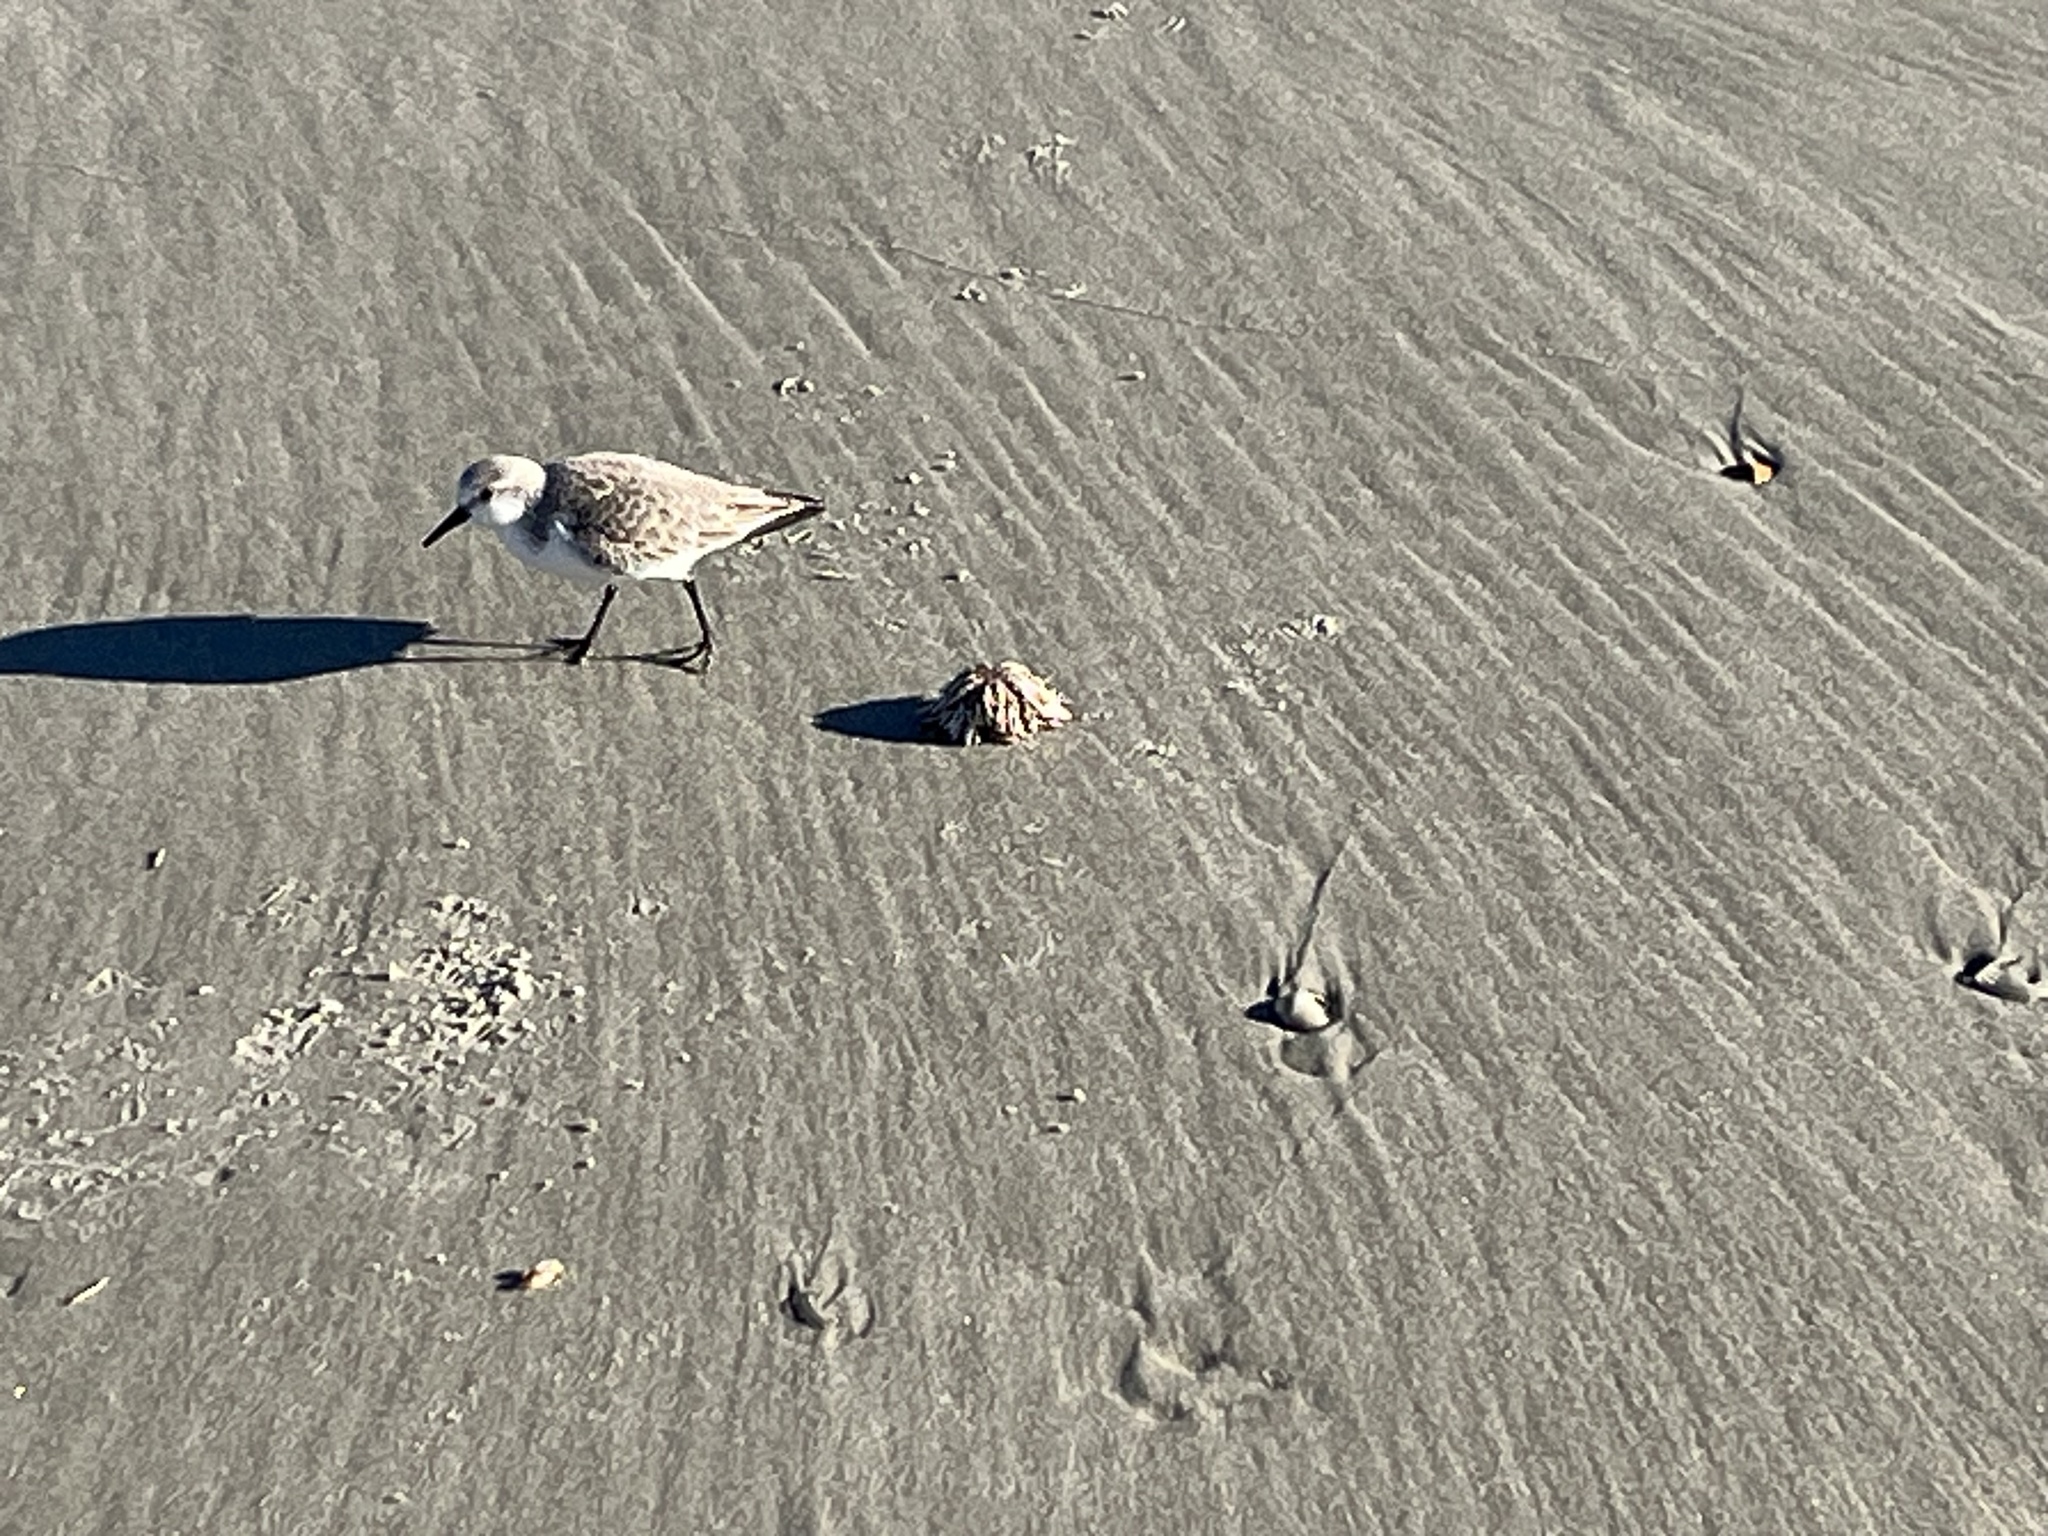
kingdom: Animalia
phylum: Chordata
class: Aves
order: Charadriiformes
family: Scolopacidae
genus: Calidris
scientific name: Calidris alba
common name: Sanderling
